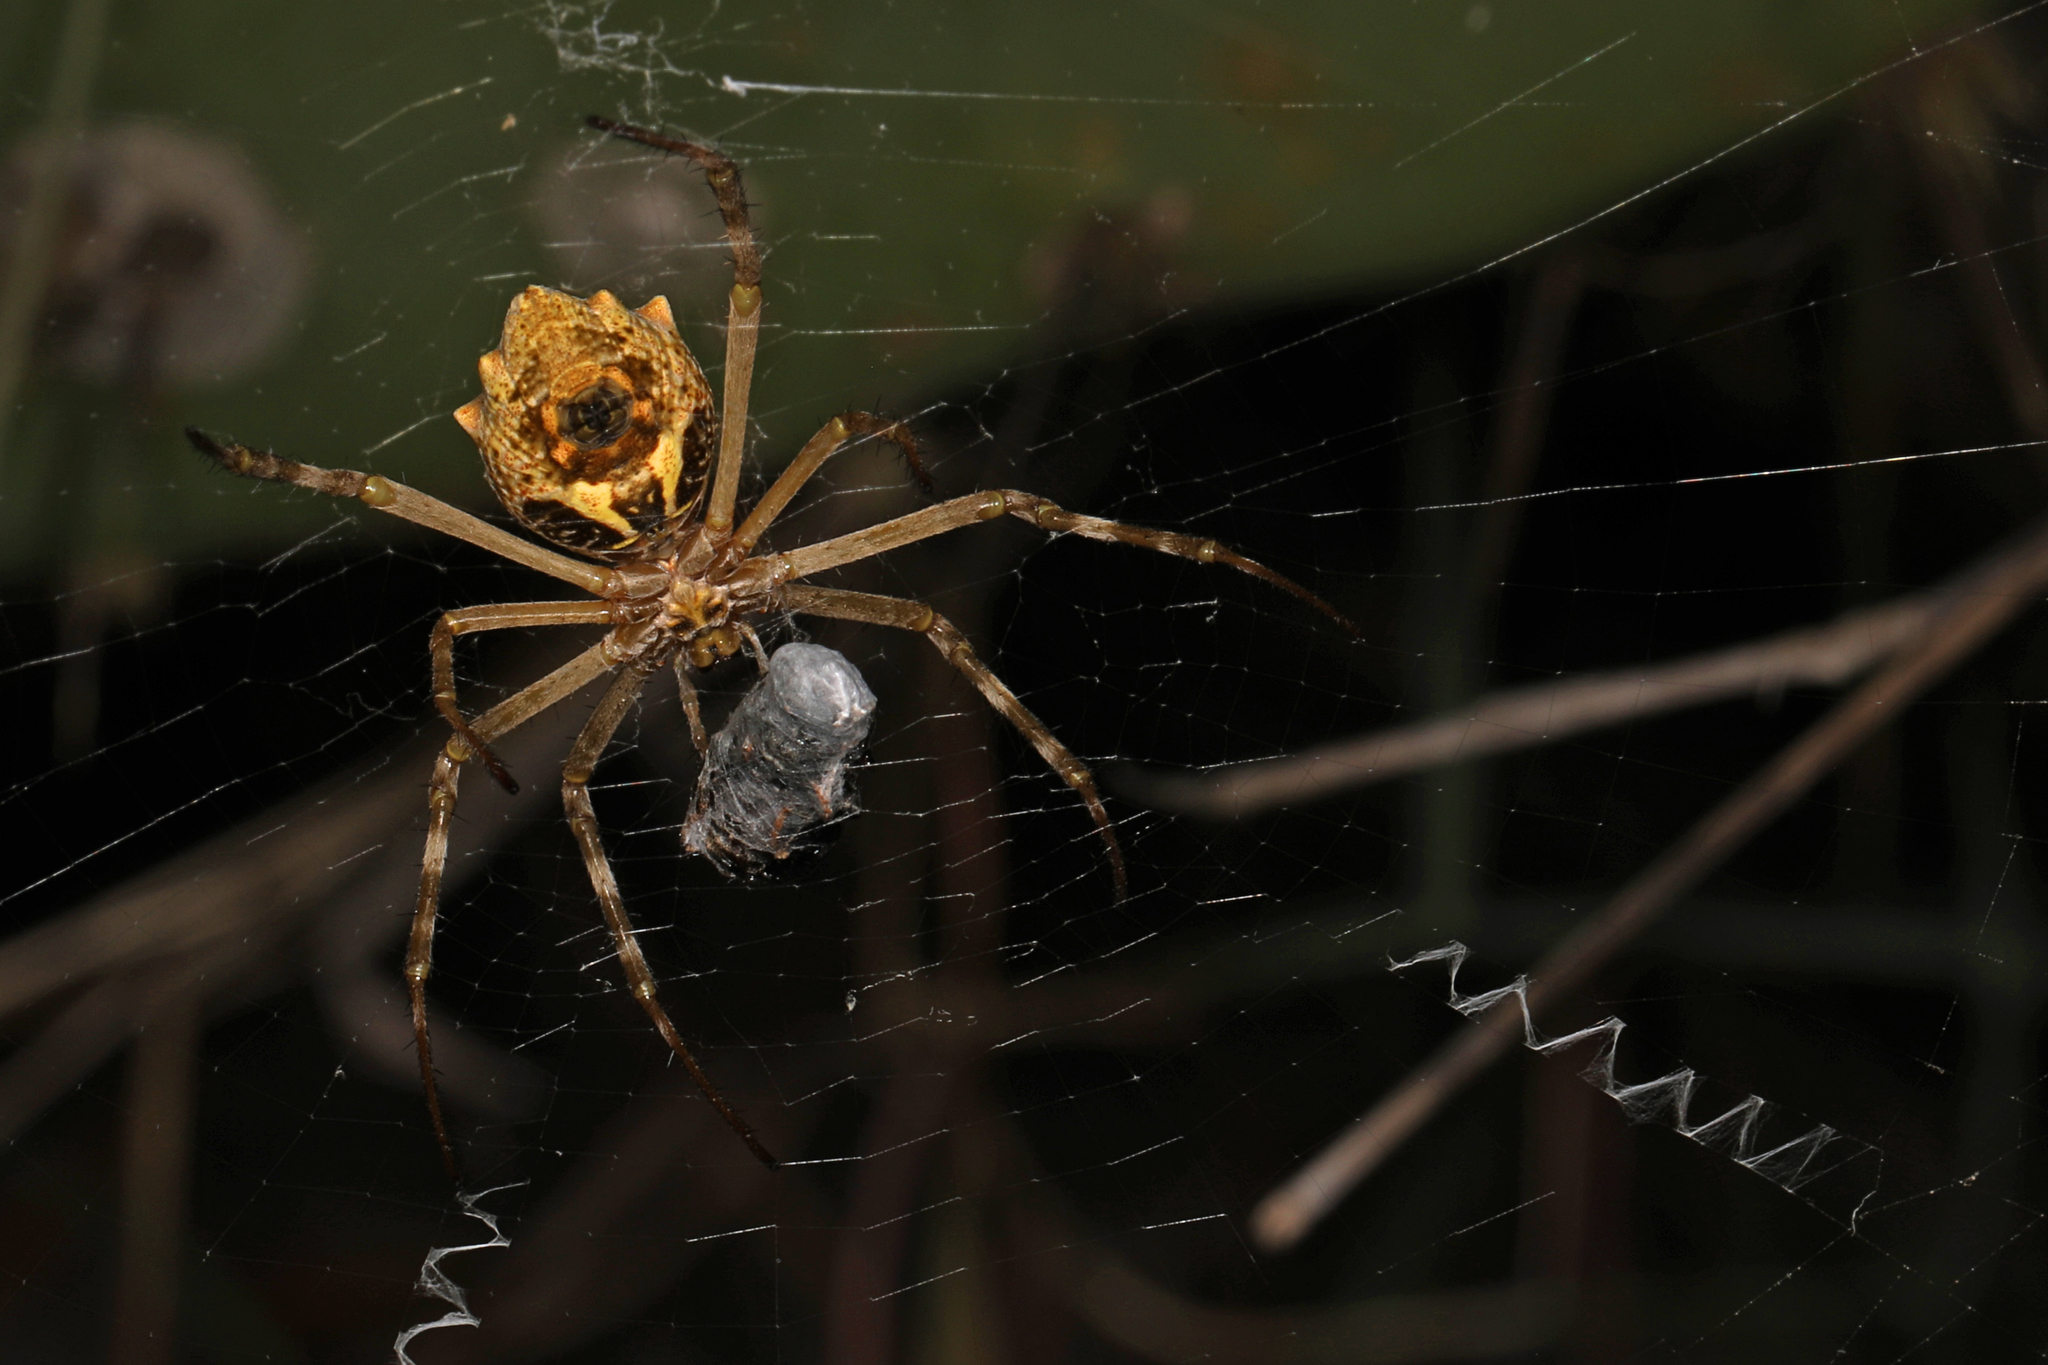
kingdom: Animalia
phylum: Arthropoda
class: Arachnida
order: Araneae
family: Araneidae
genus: Argiope
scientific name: Argiope blanda
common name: Orb weavers
